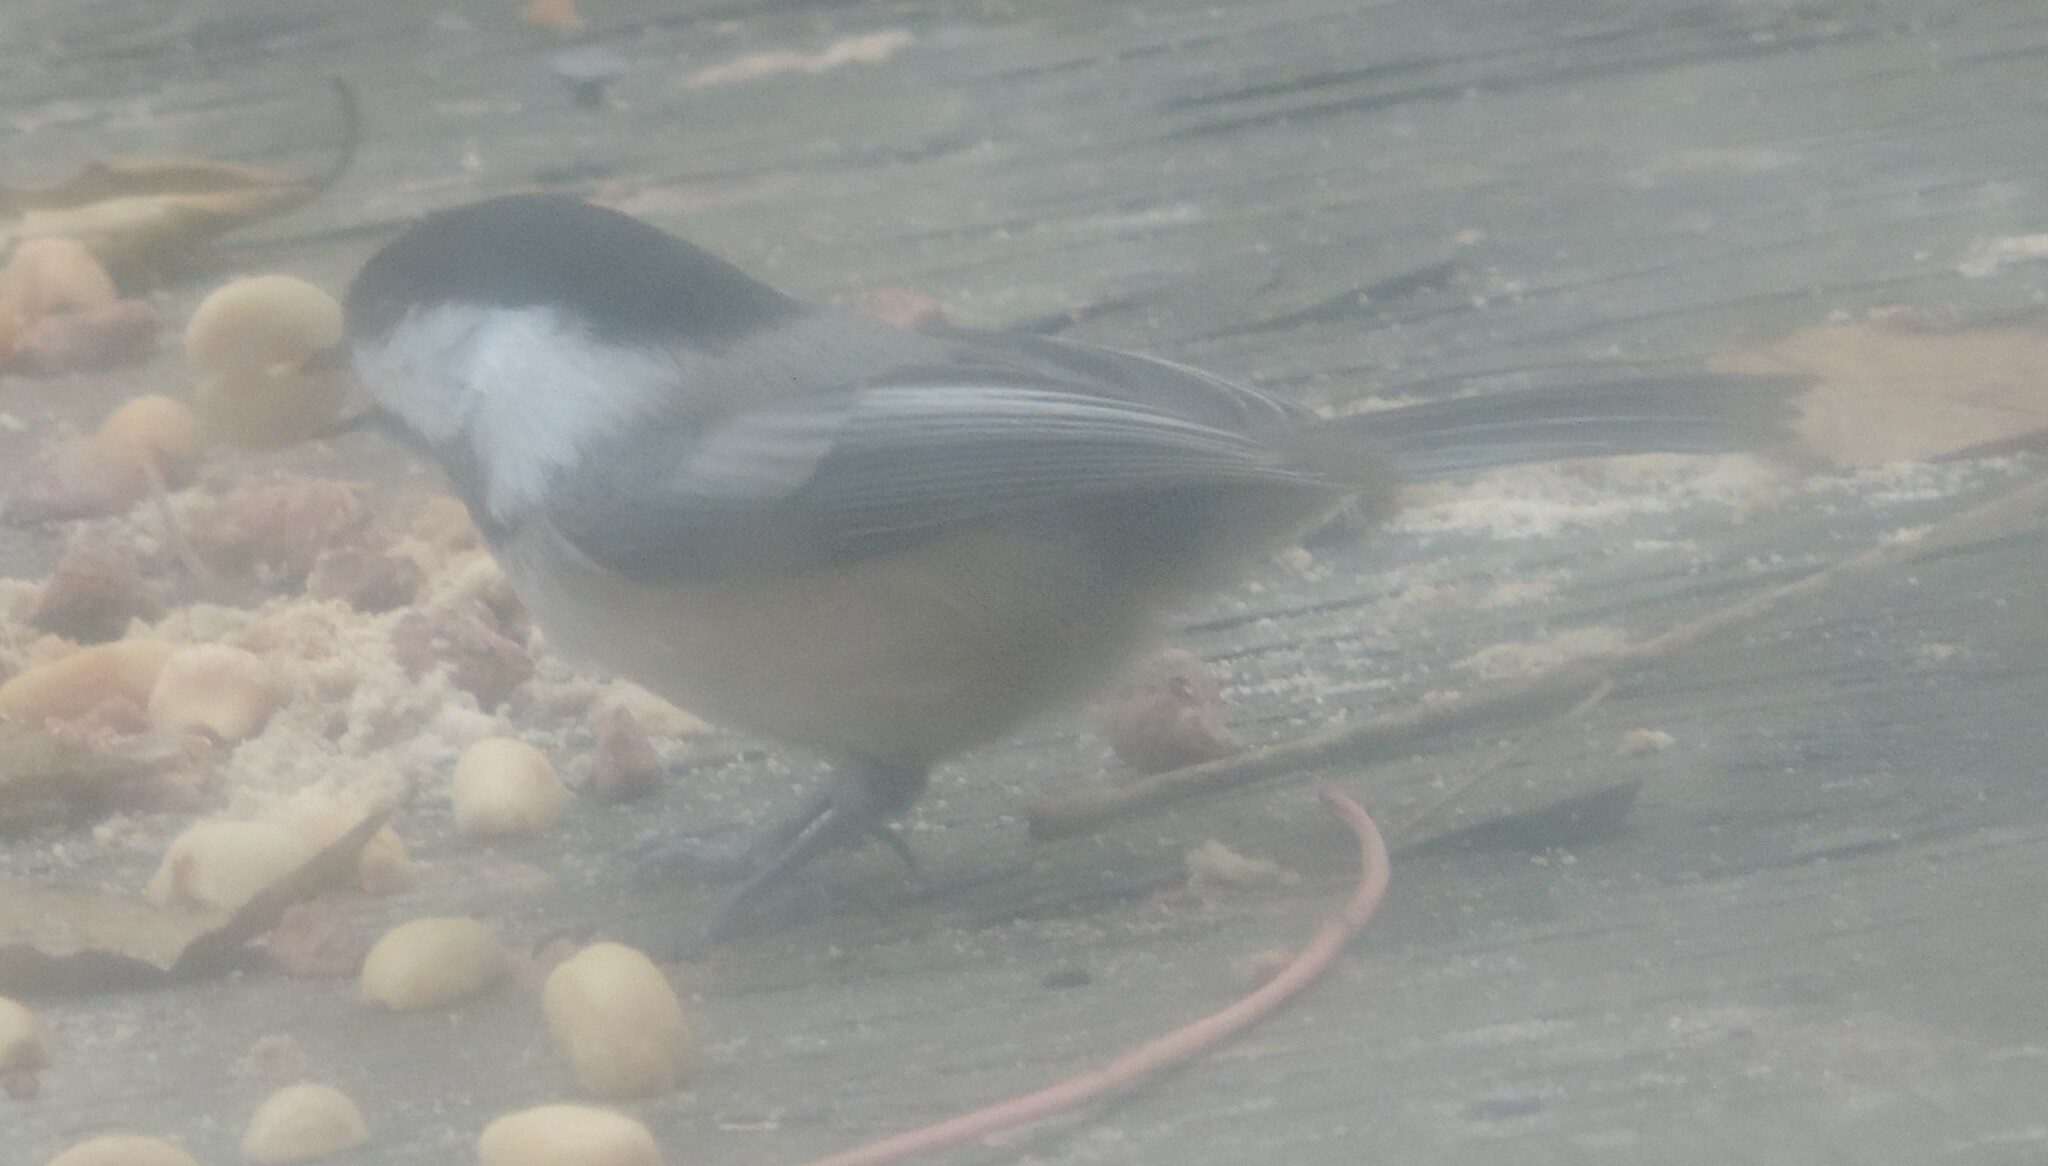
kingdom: Animalia
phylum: Chordata
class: Aves
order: Passeriformes
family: Paridae
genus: Poecile
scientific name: Poecile atricapillus
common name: Black-capped chickadee
